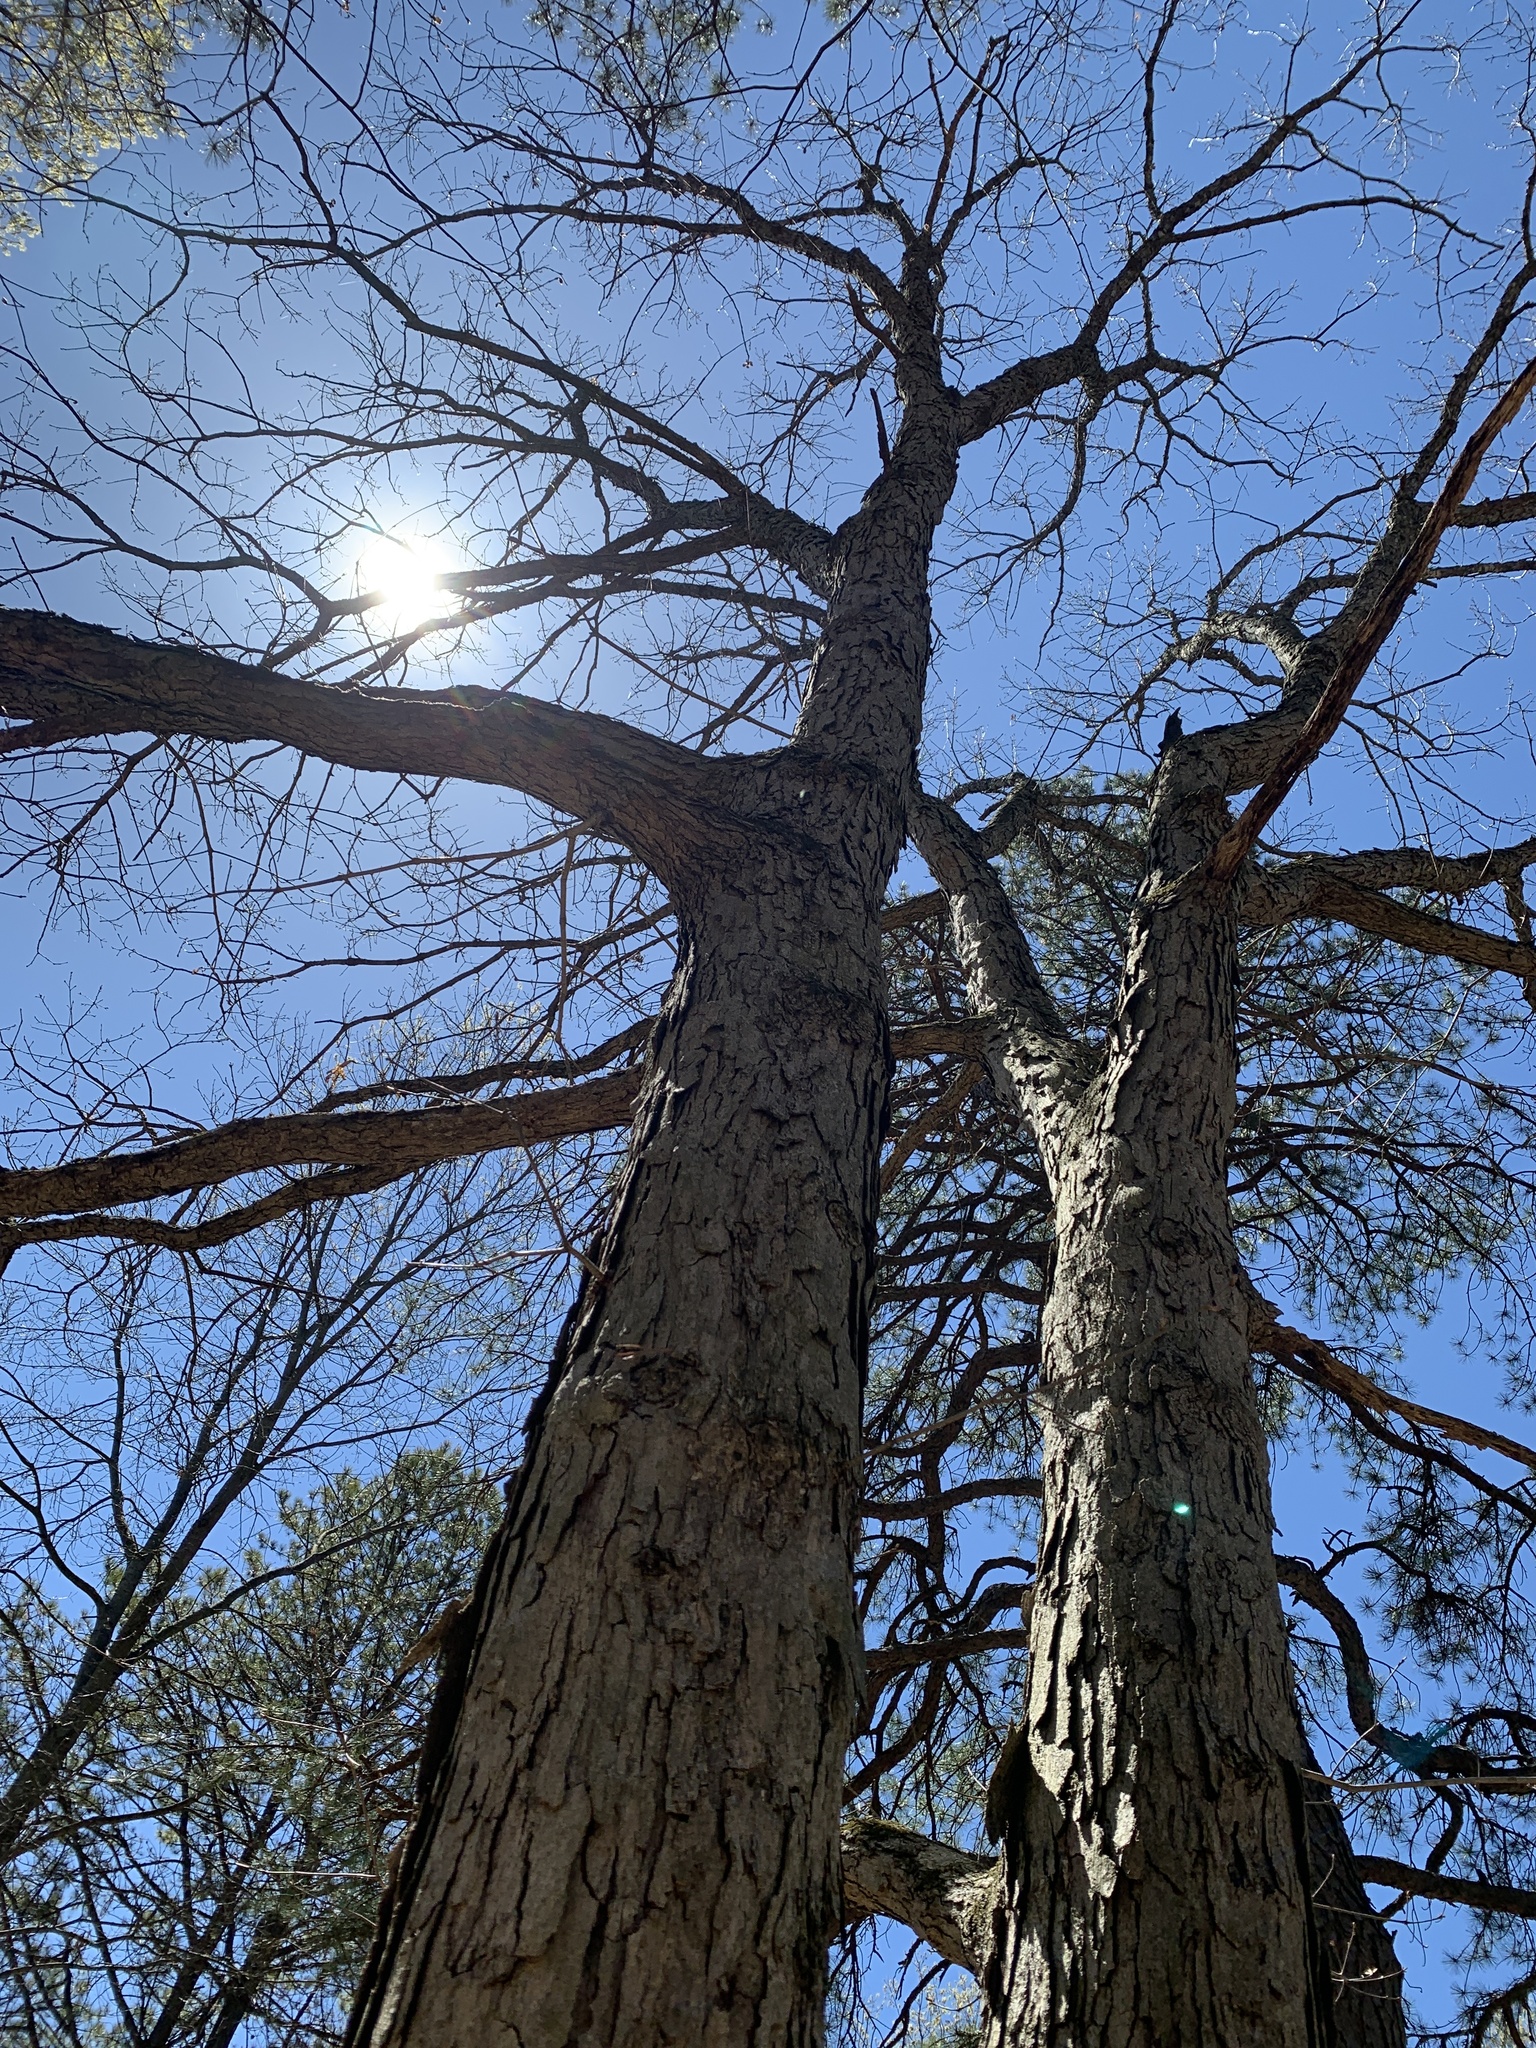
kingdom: Plantae
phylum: Tracheophyta
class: Magnoliopsida
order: Fagales
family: Fagaceae
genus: Quercus
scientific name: Quercus alba
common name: White oak
